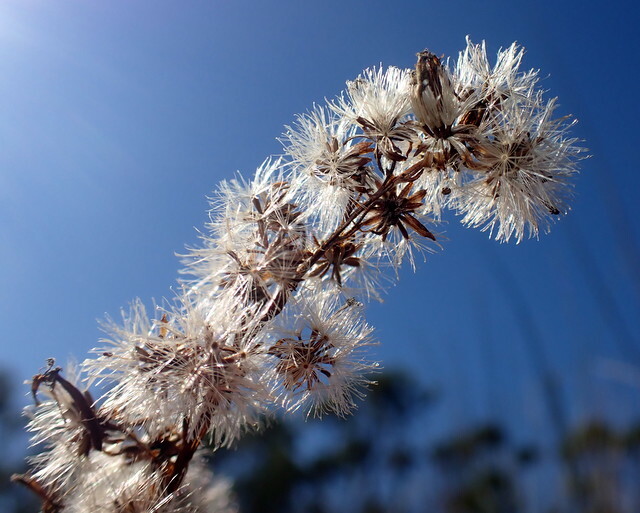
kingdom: Plantae
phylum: Tracheophyta
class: Magnoliopsida
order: Asterales
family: Asteraceae
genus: Solidago
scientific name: Solidago mexicana
